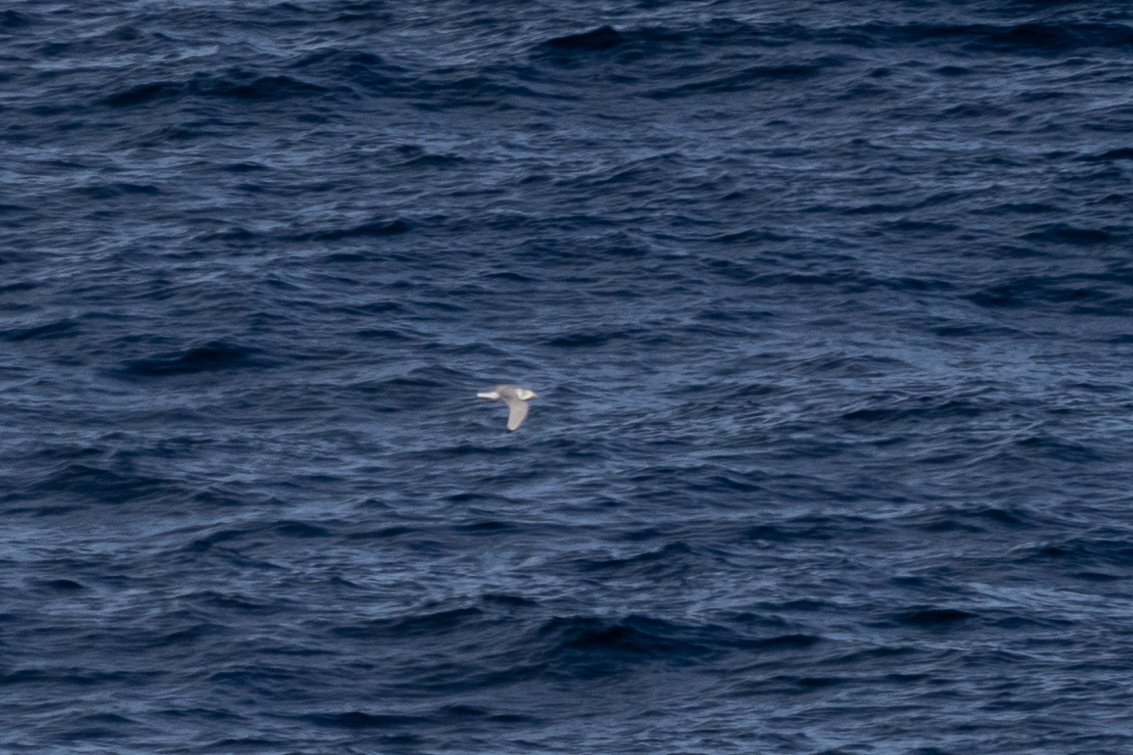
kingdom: Animalia
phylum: Chordata
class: Aves
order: Charadriiformes
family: Laridae
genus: Rissa
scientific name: Rissa tridactyla
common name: Black-legged kittiwake
